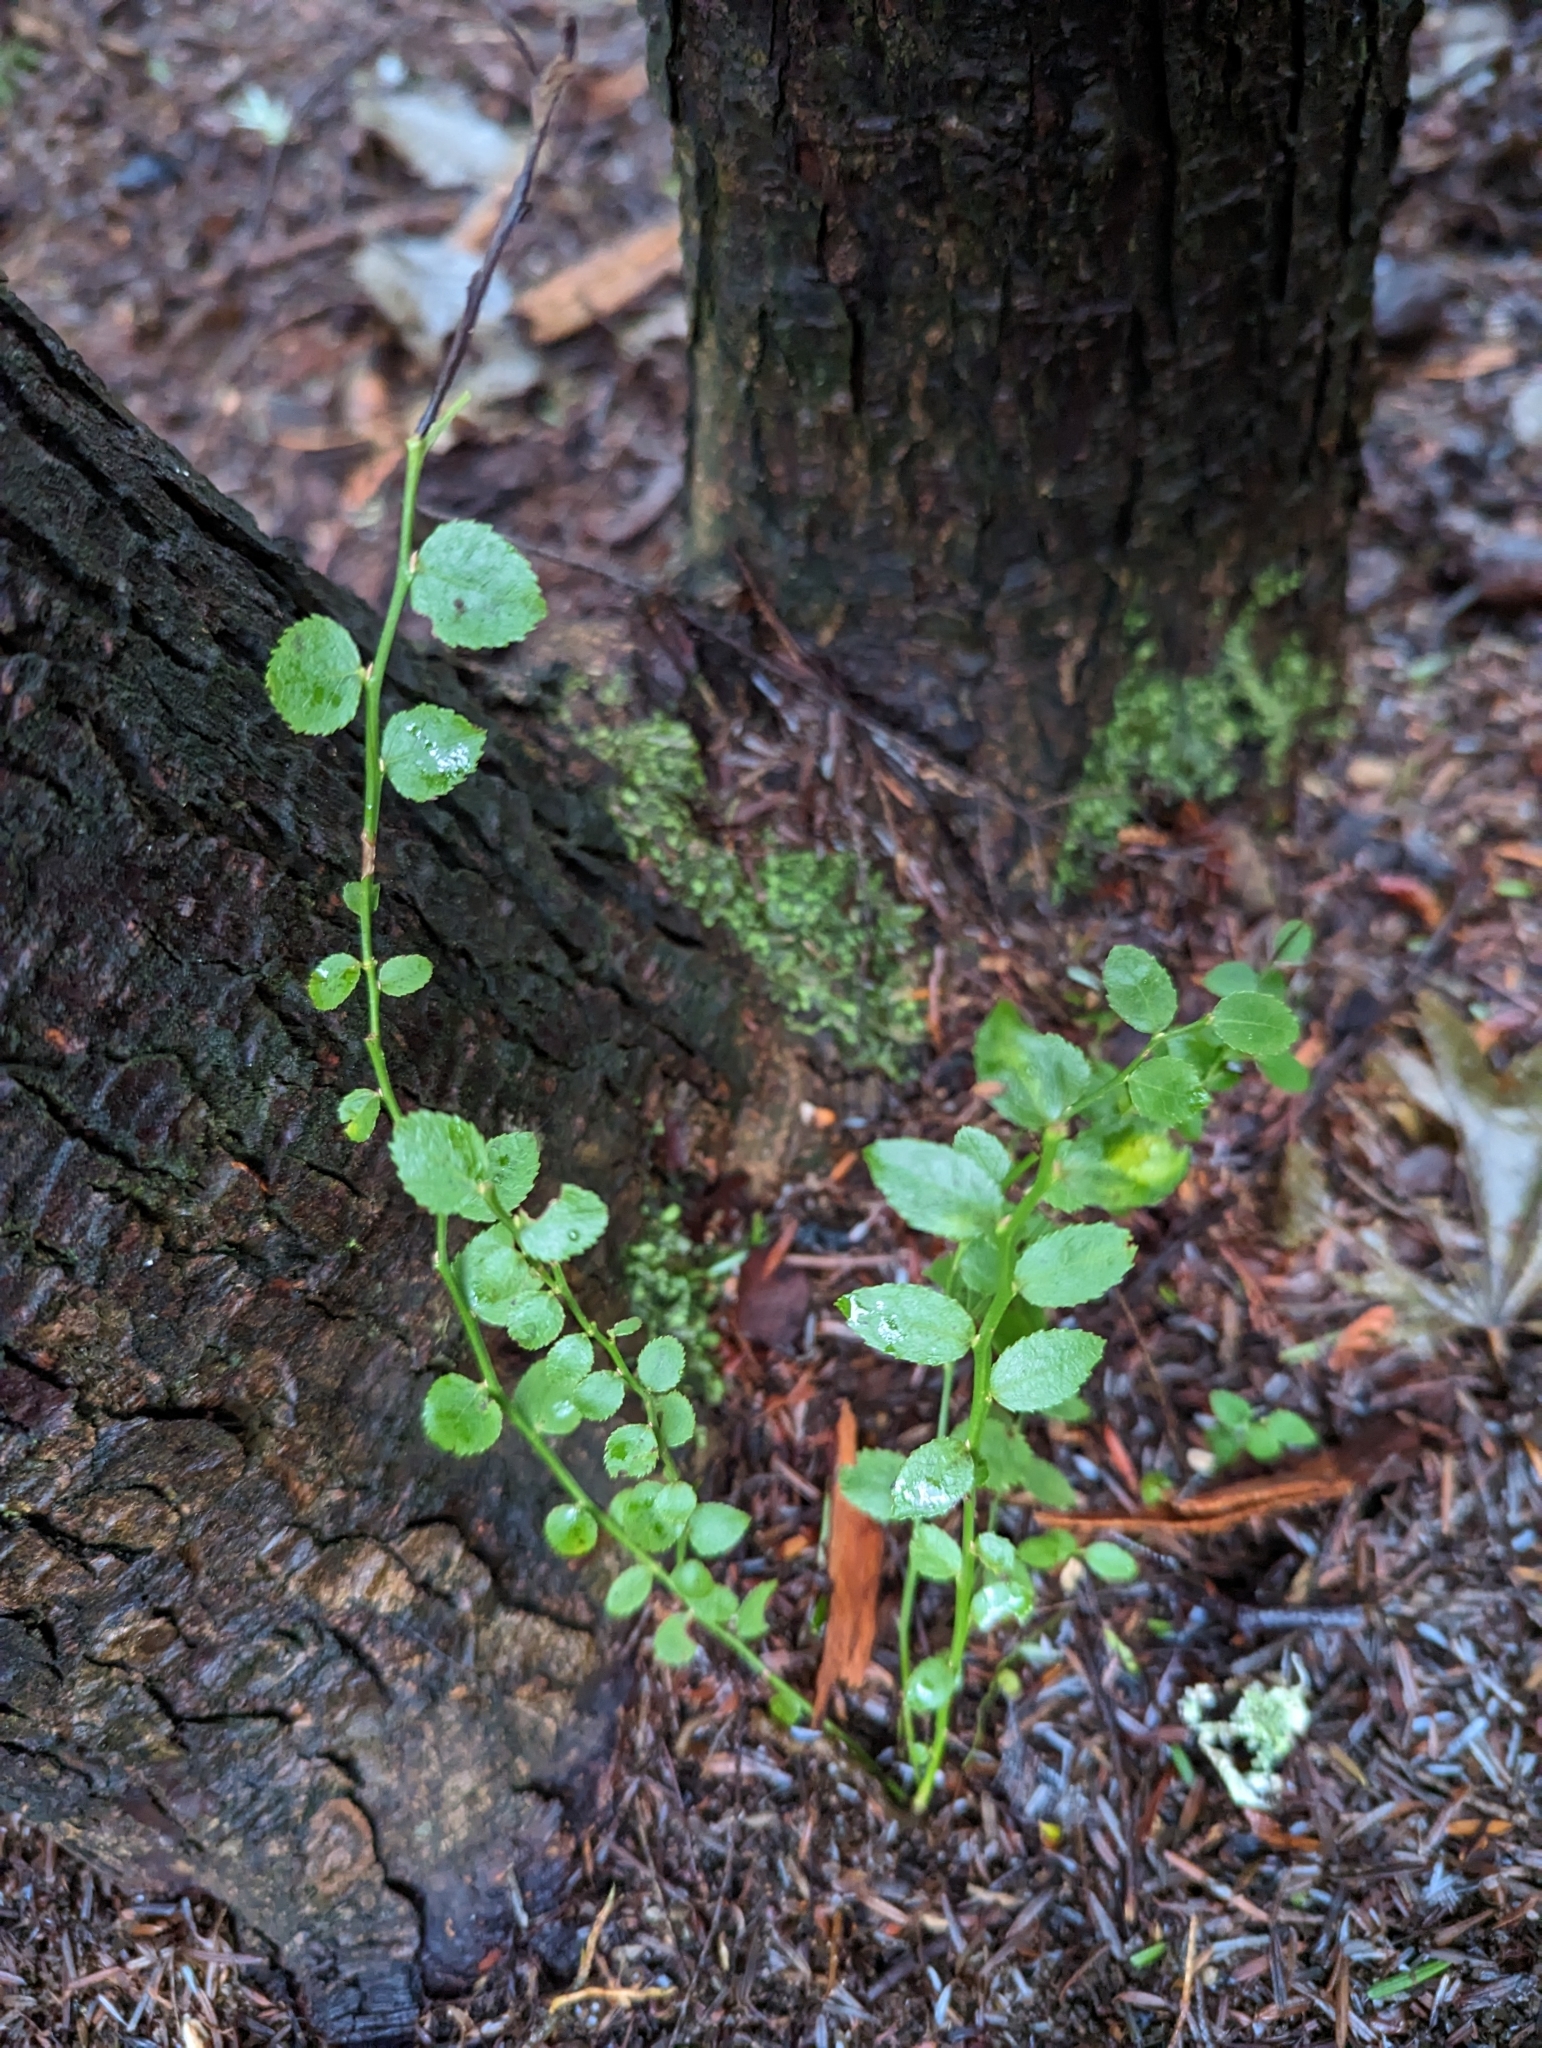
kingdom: Plantae
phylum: Tracheophyta
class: Magnoliopsida
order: Ericales
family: Ericaceae
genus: Vaccinium
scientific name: Vaccinium parvifolium
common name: Red-huckleberry
